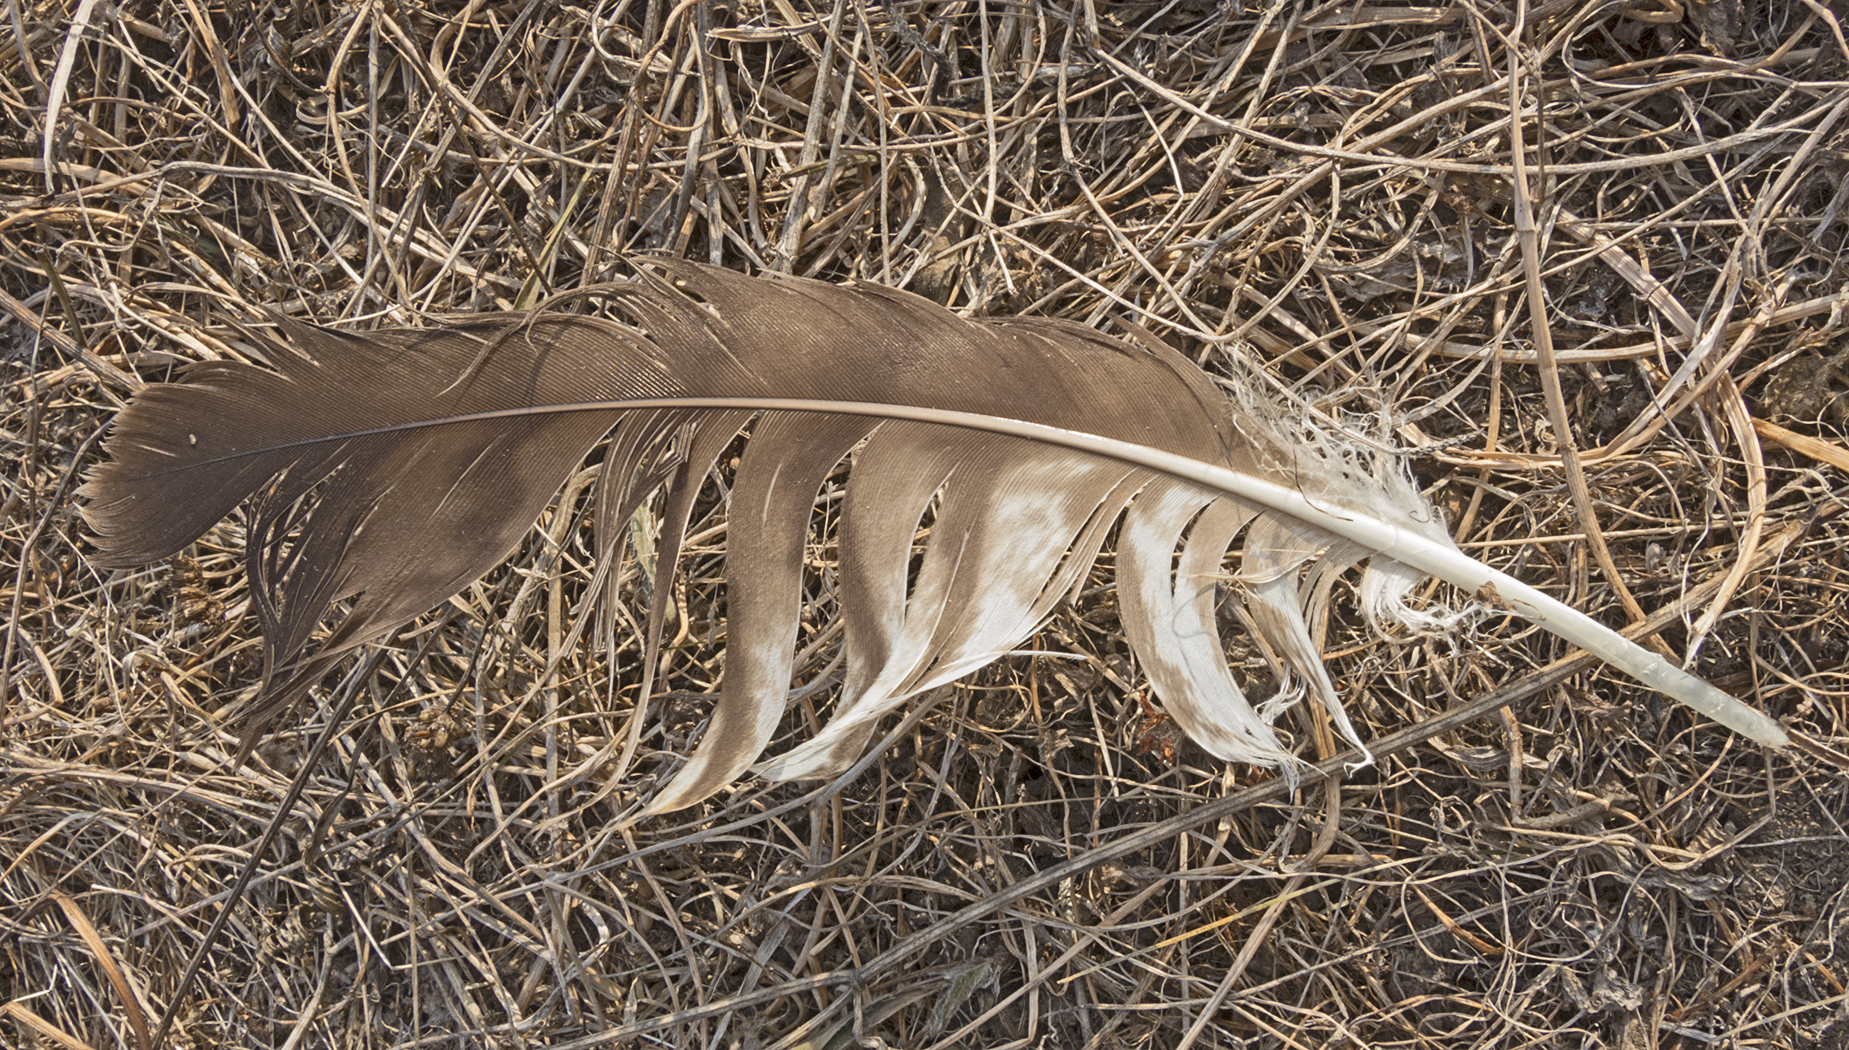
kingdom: Animalia
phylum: Chordata
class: Aves
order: Accipitriformes
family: Accipitridae
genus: Buteo
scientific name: Buteo buteo
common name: Common buzzard
